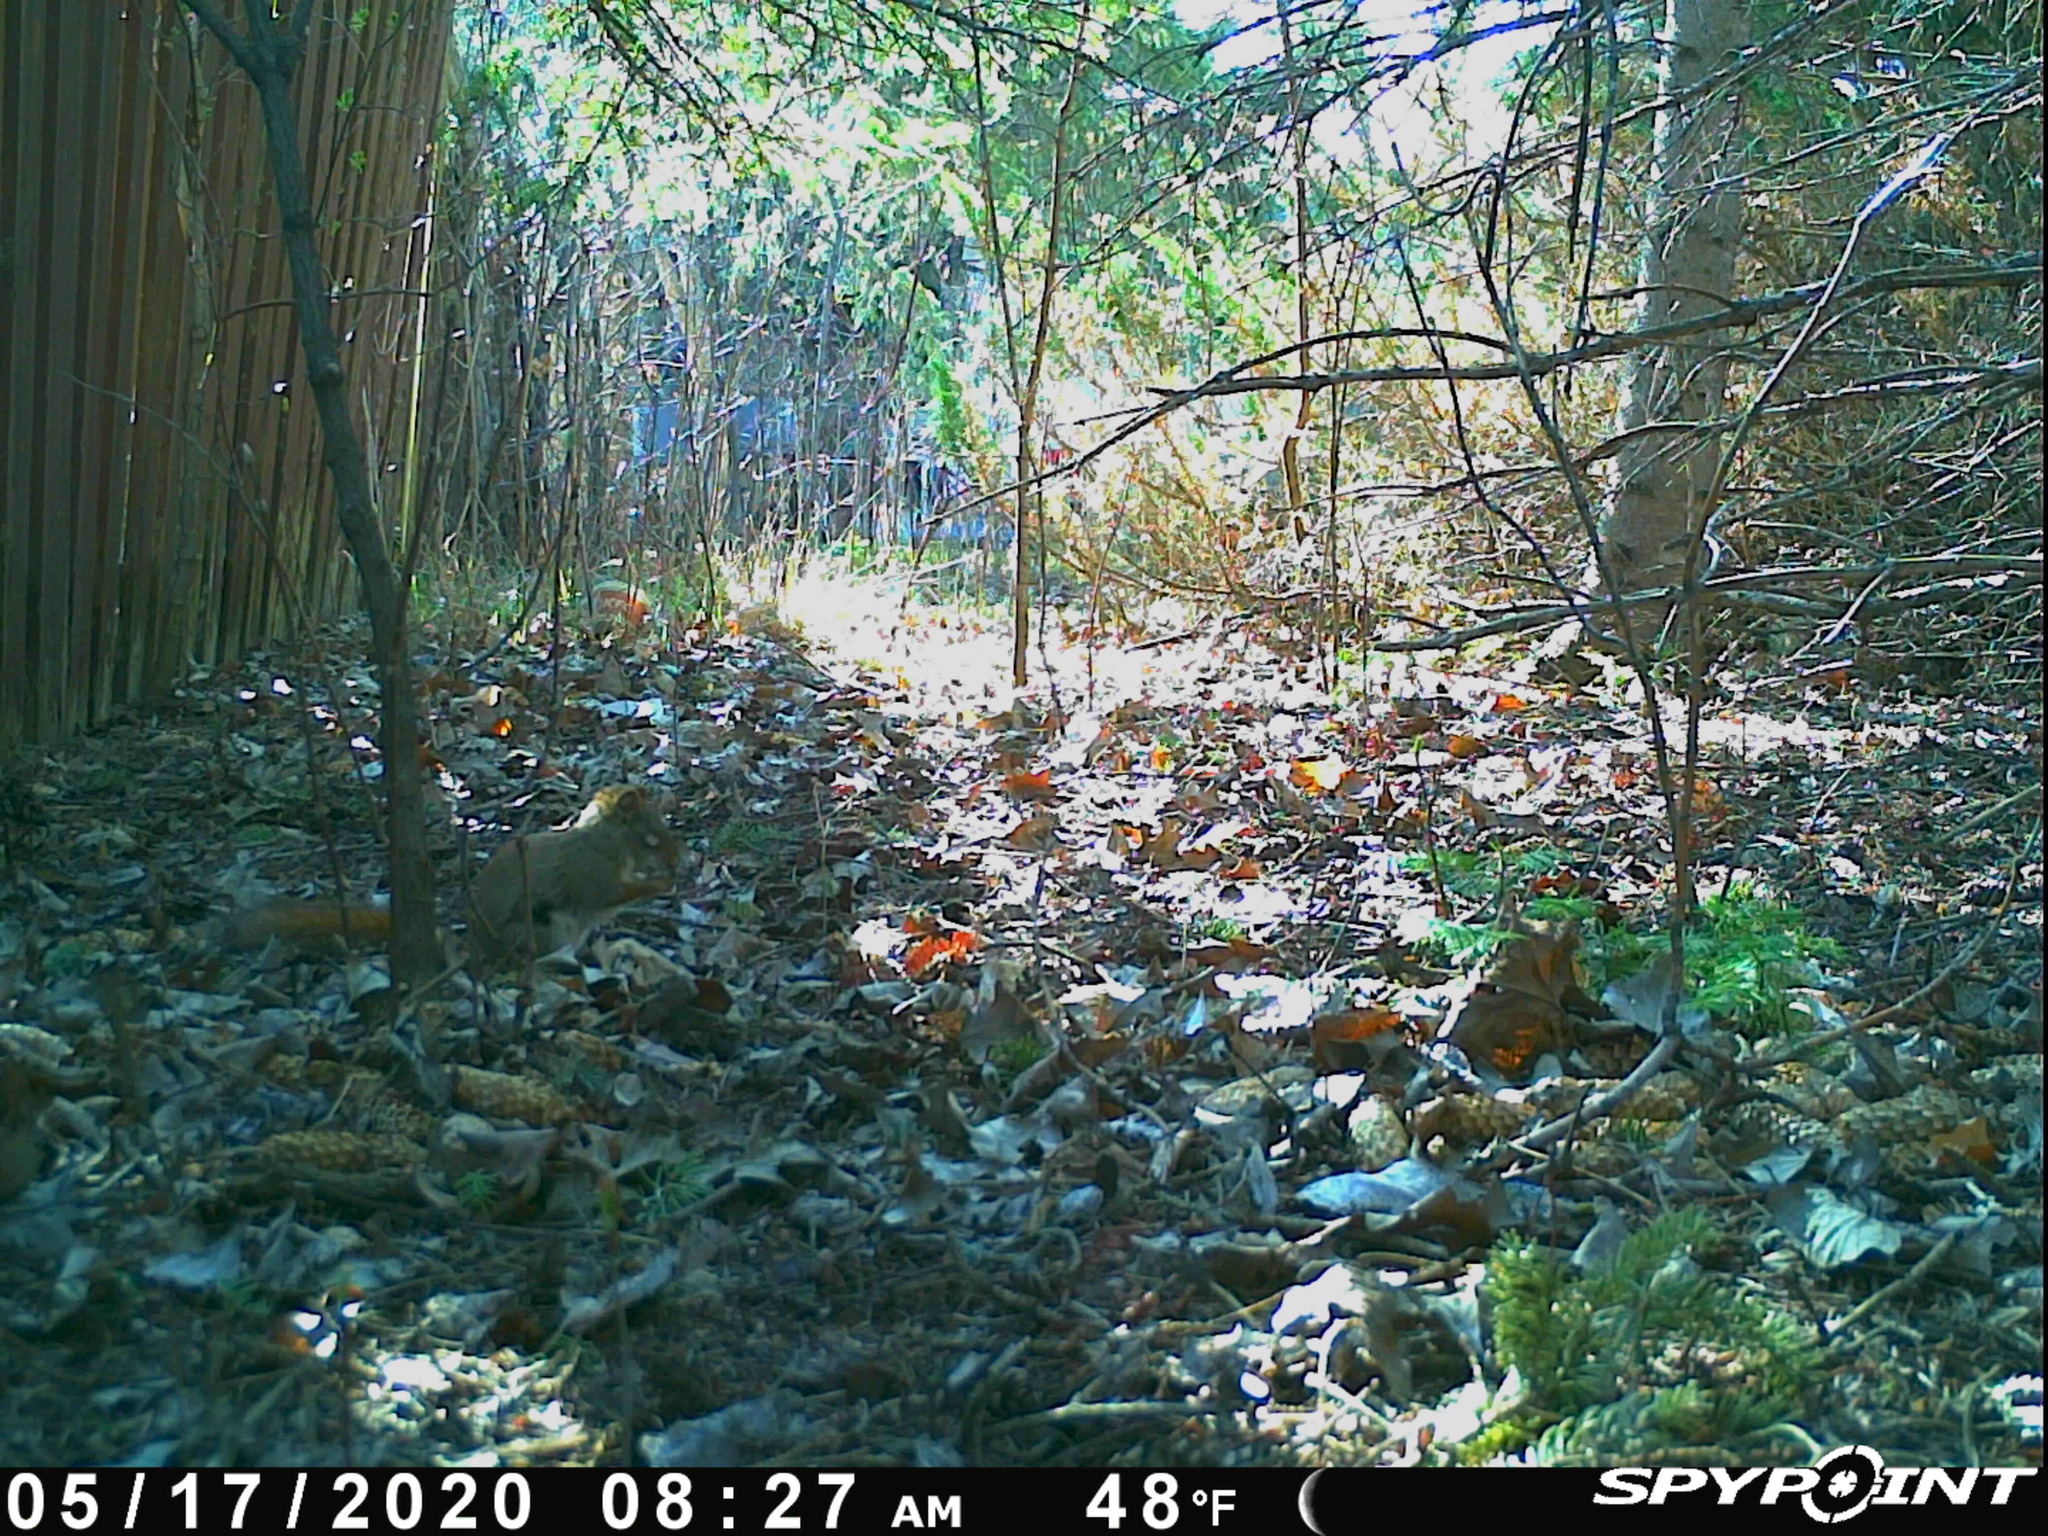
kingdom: Animalia
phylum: Chordata
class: Mammalia
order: Rodentia
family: Sciuridae
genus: Tamiasciurus
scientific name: Tamiasciurus hudsonicus
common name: Red squirrel
